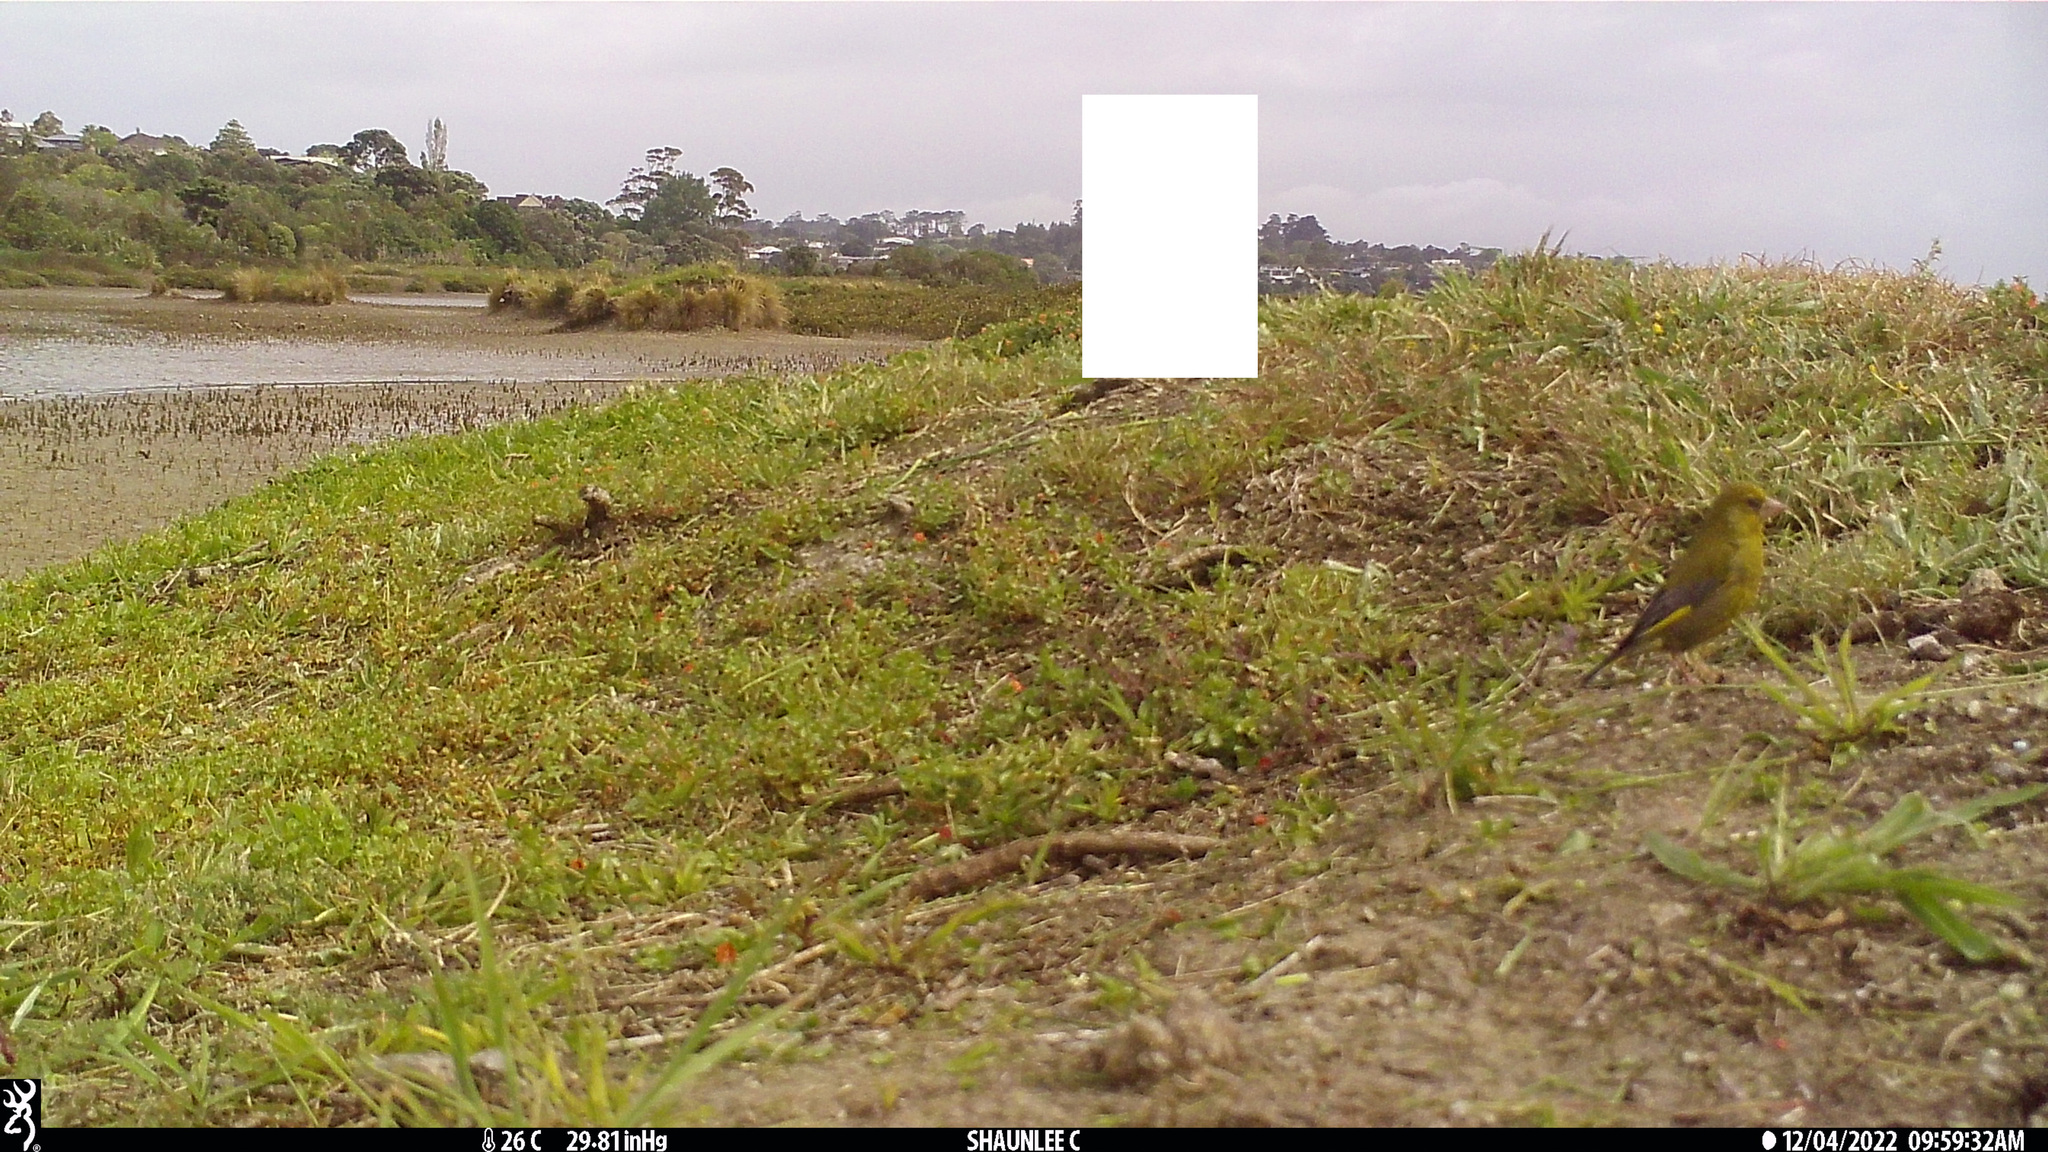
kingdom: Plantae
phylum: Tracheophyta
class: Liliopsida
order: Poales
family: Poaceae
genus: Chloris
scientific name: Chloris chloris
